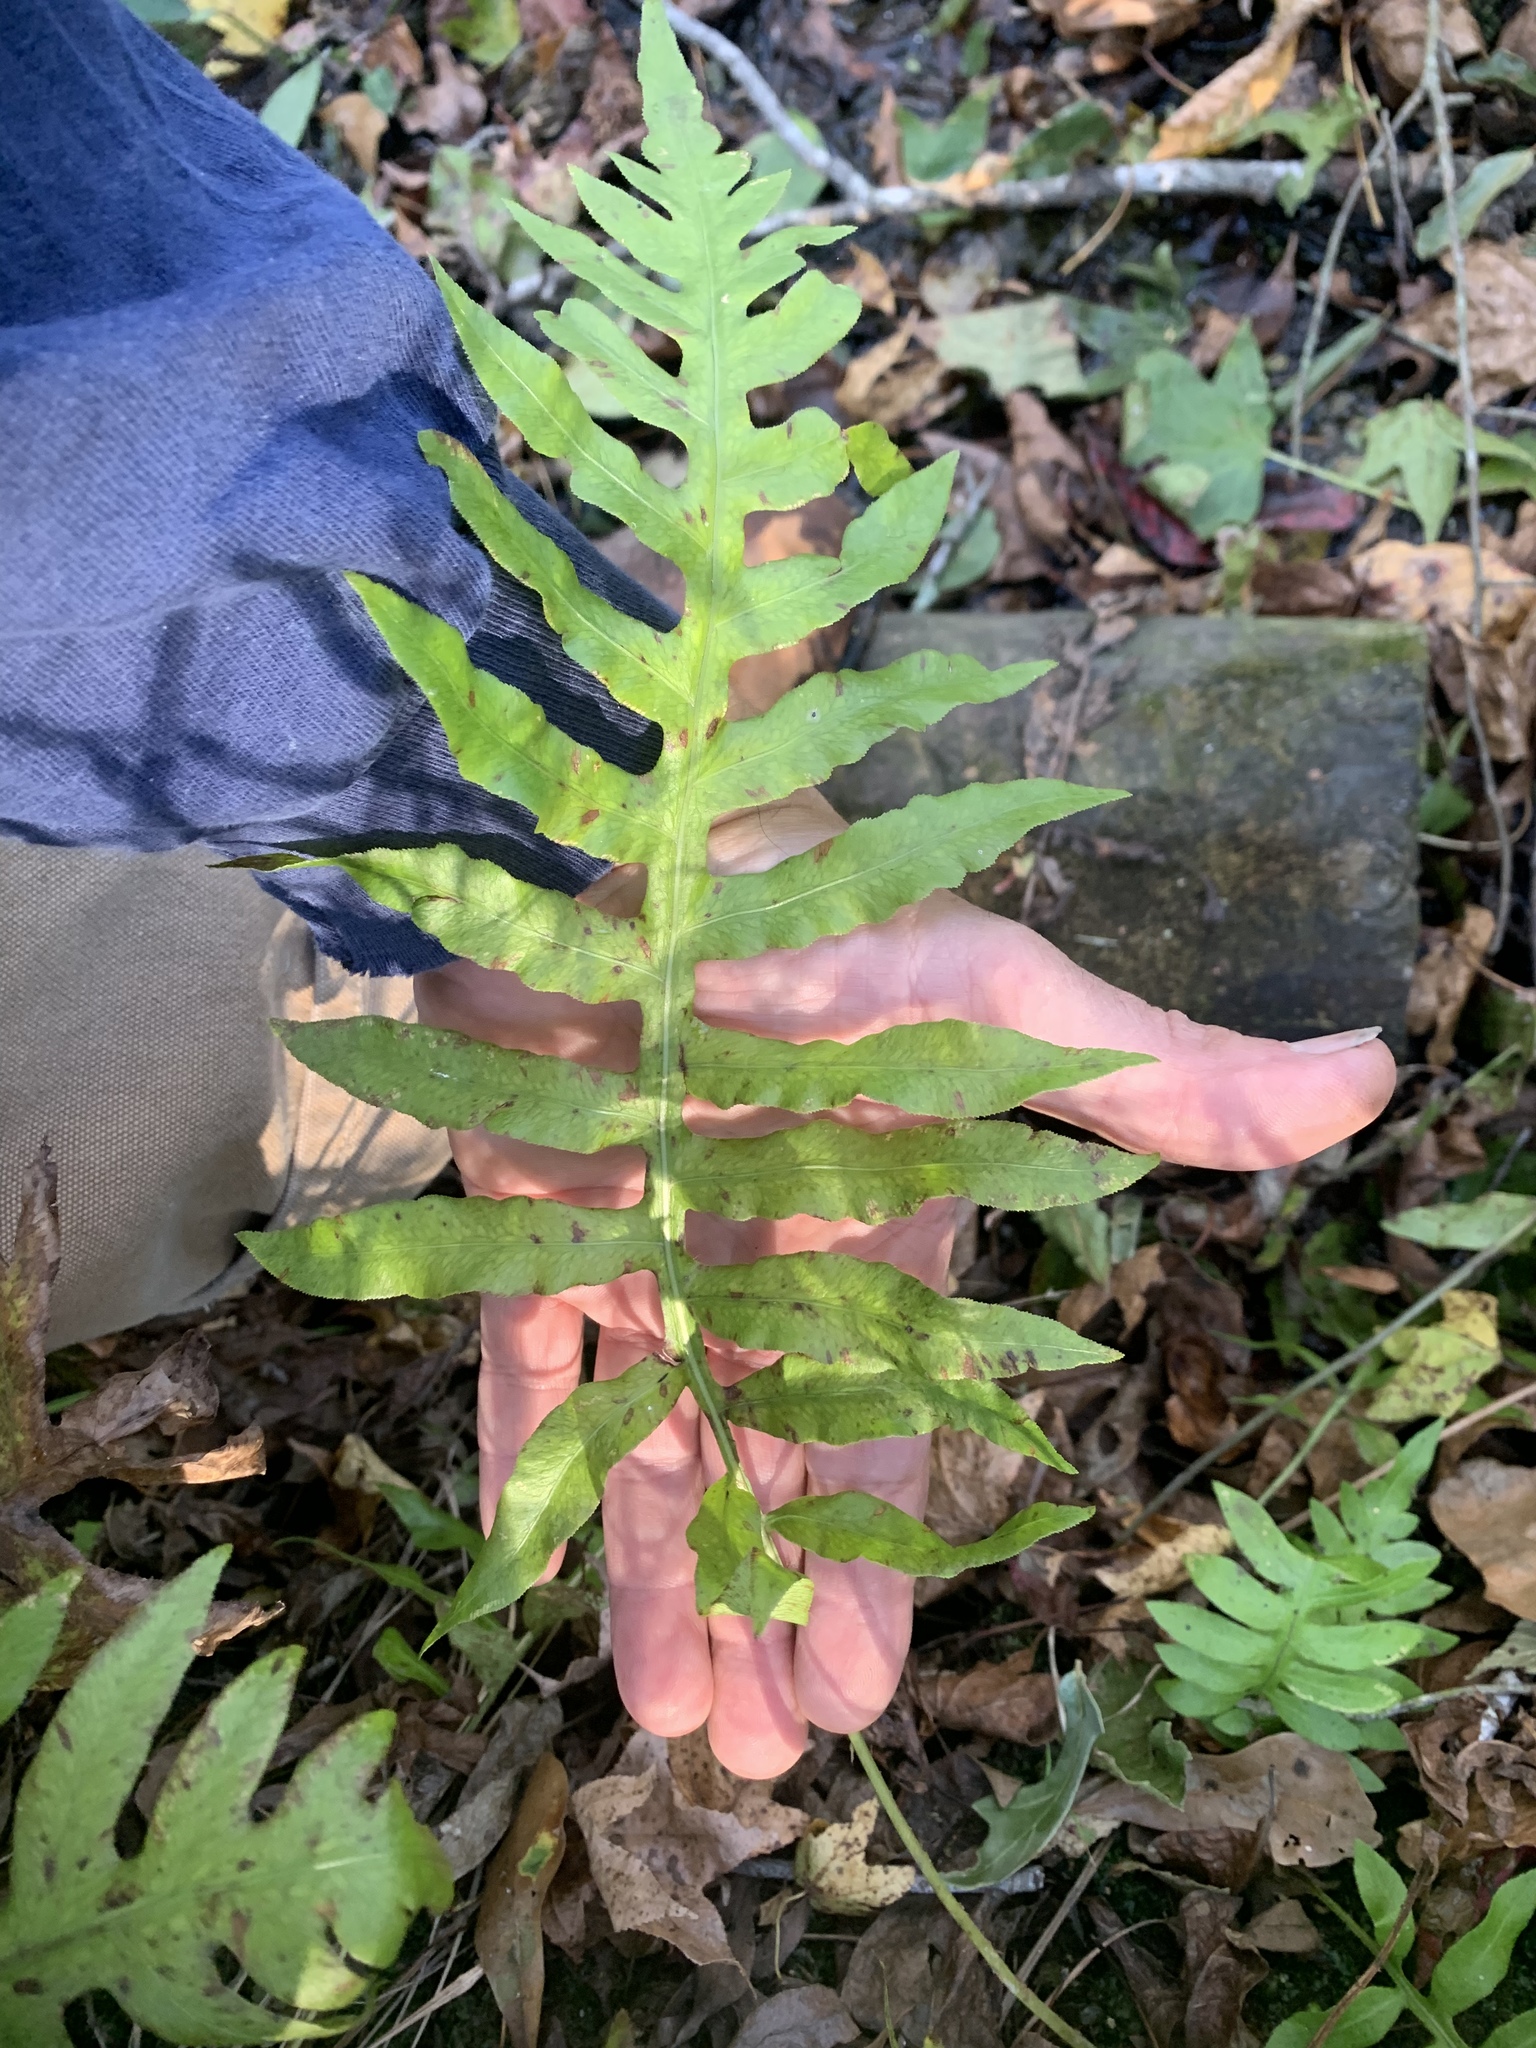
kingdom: Plantae
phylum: Tracheophyta
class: Polypodiopsida
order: Polypodiales
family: Onocleaceae
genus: Onoclea
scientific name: Onoclea sensibilis
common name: Sensitive fern
